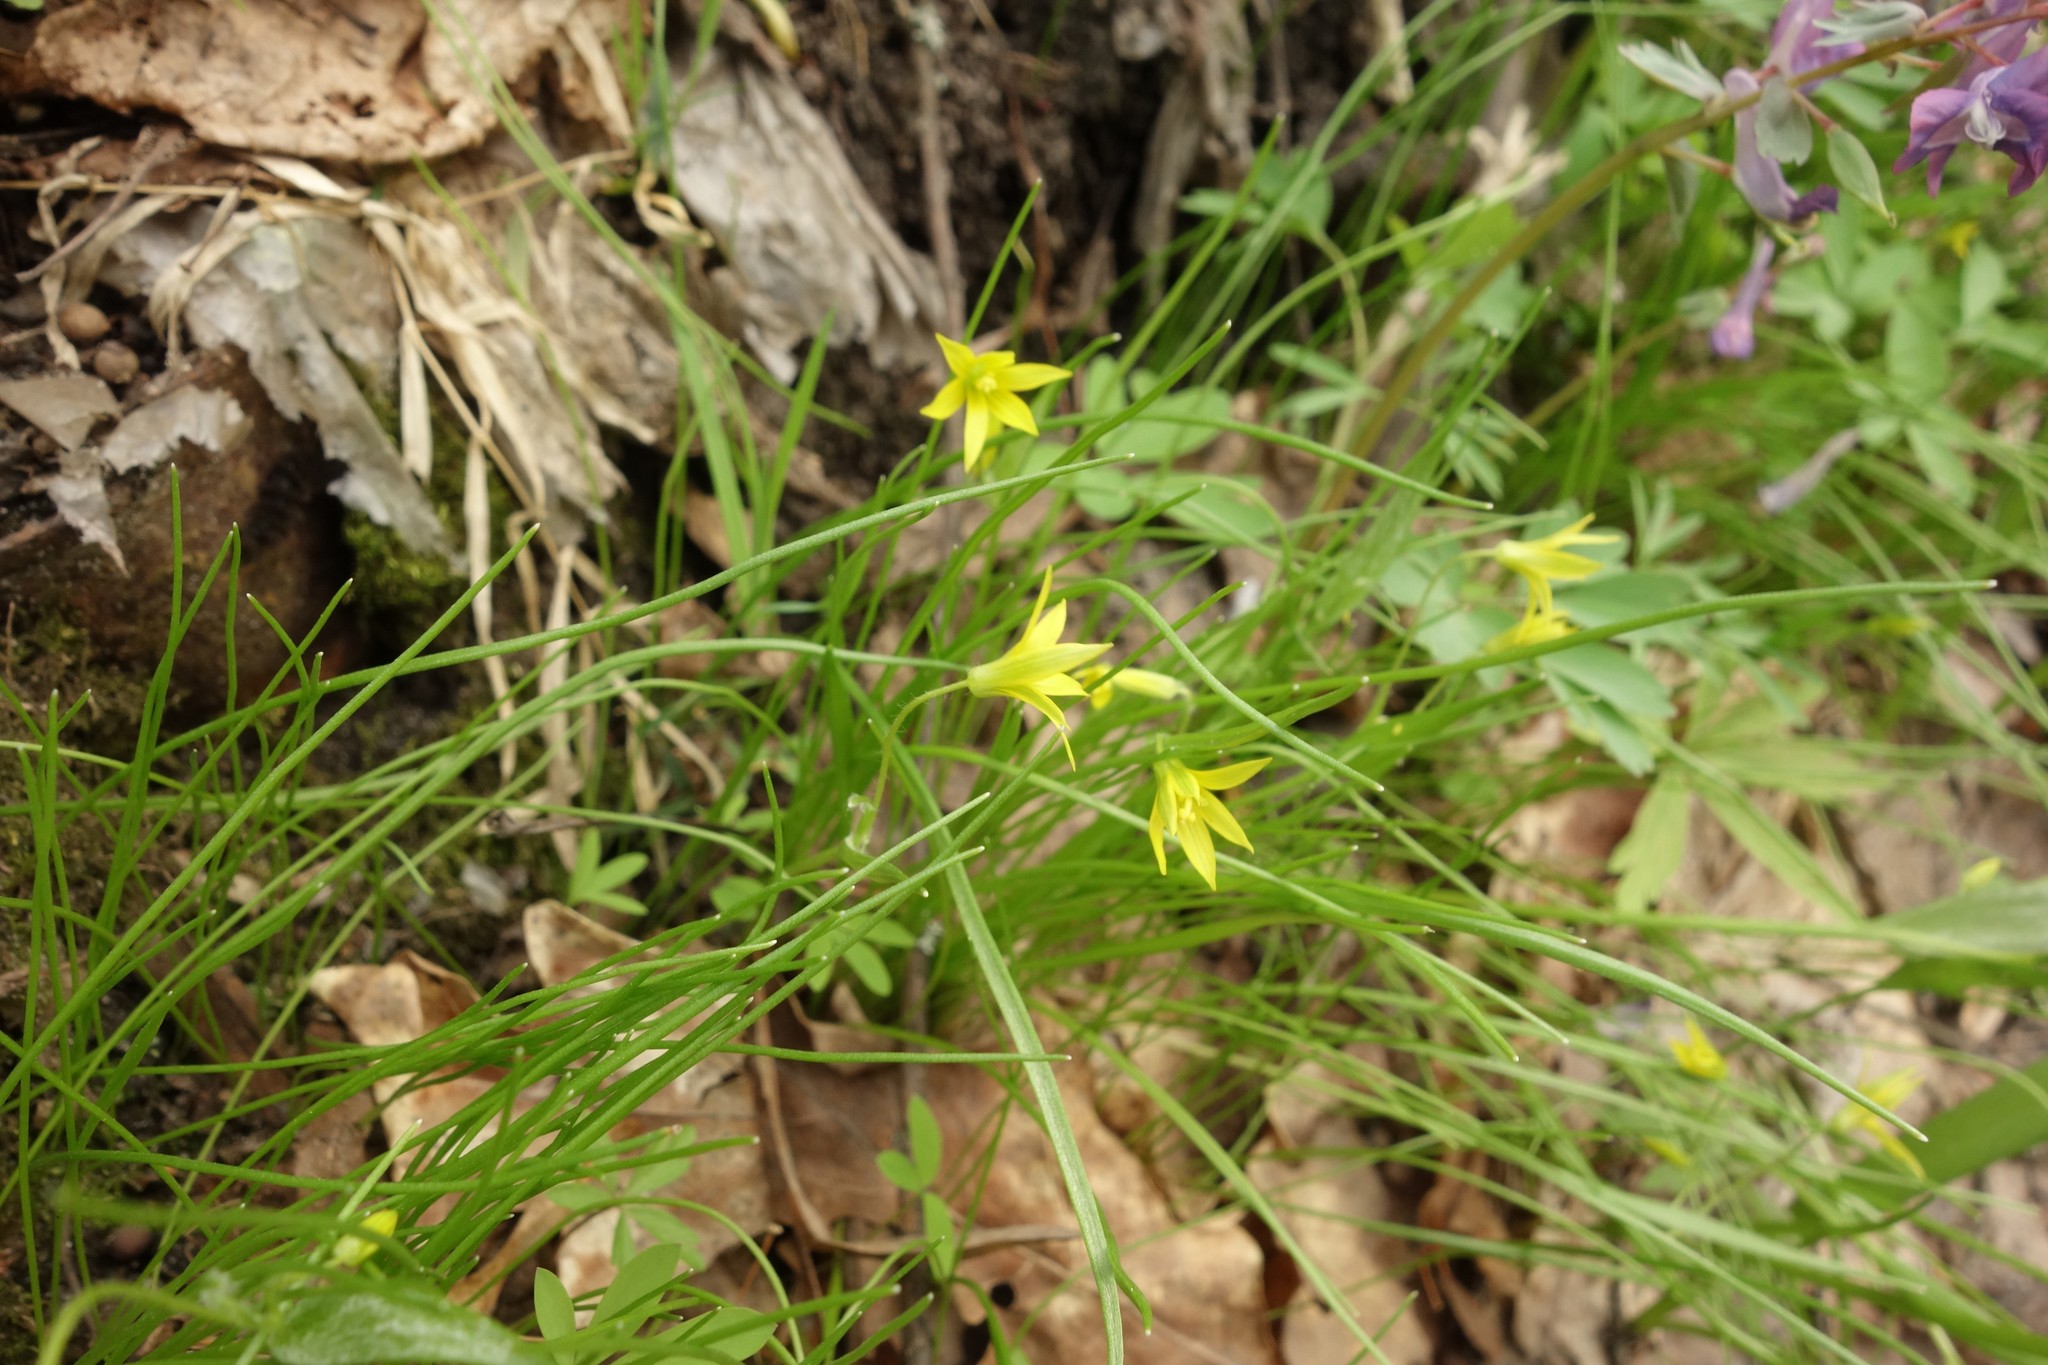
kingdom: Plantae
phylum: Tracheophyta
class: Liliopsida
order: Liliales
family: Liliaceae
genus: Gagea
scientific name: Gagea minima
